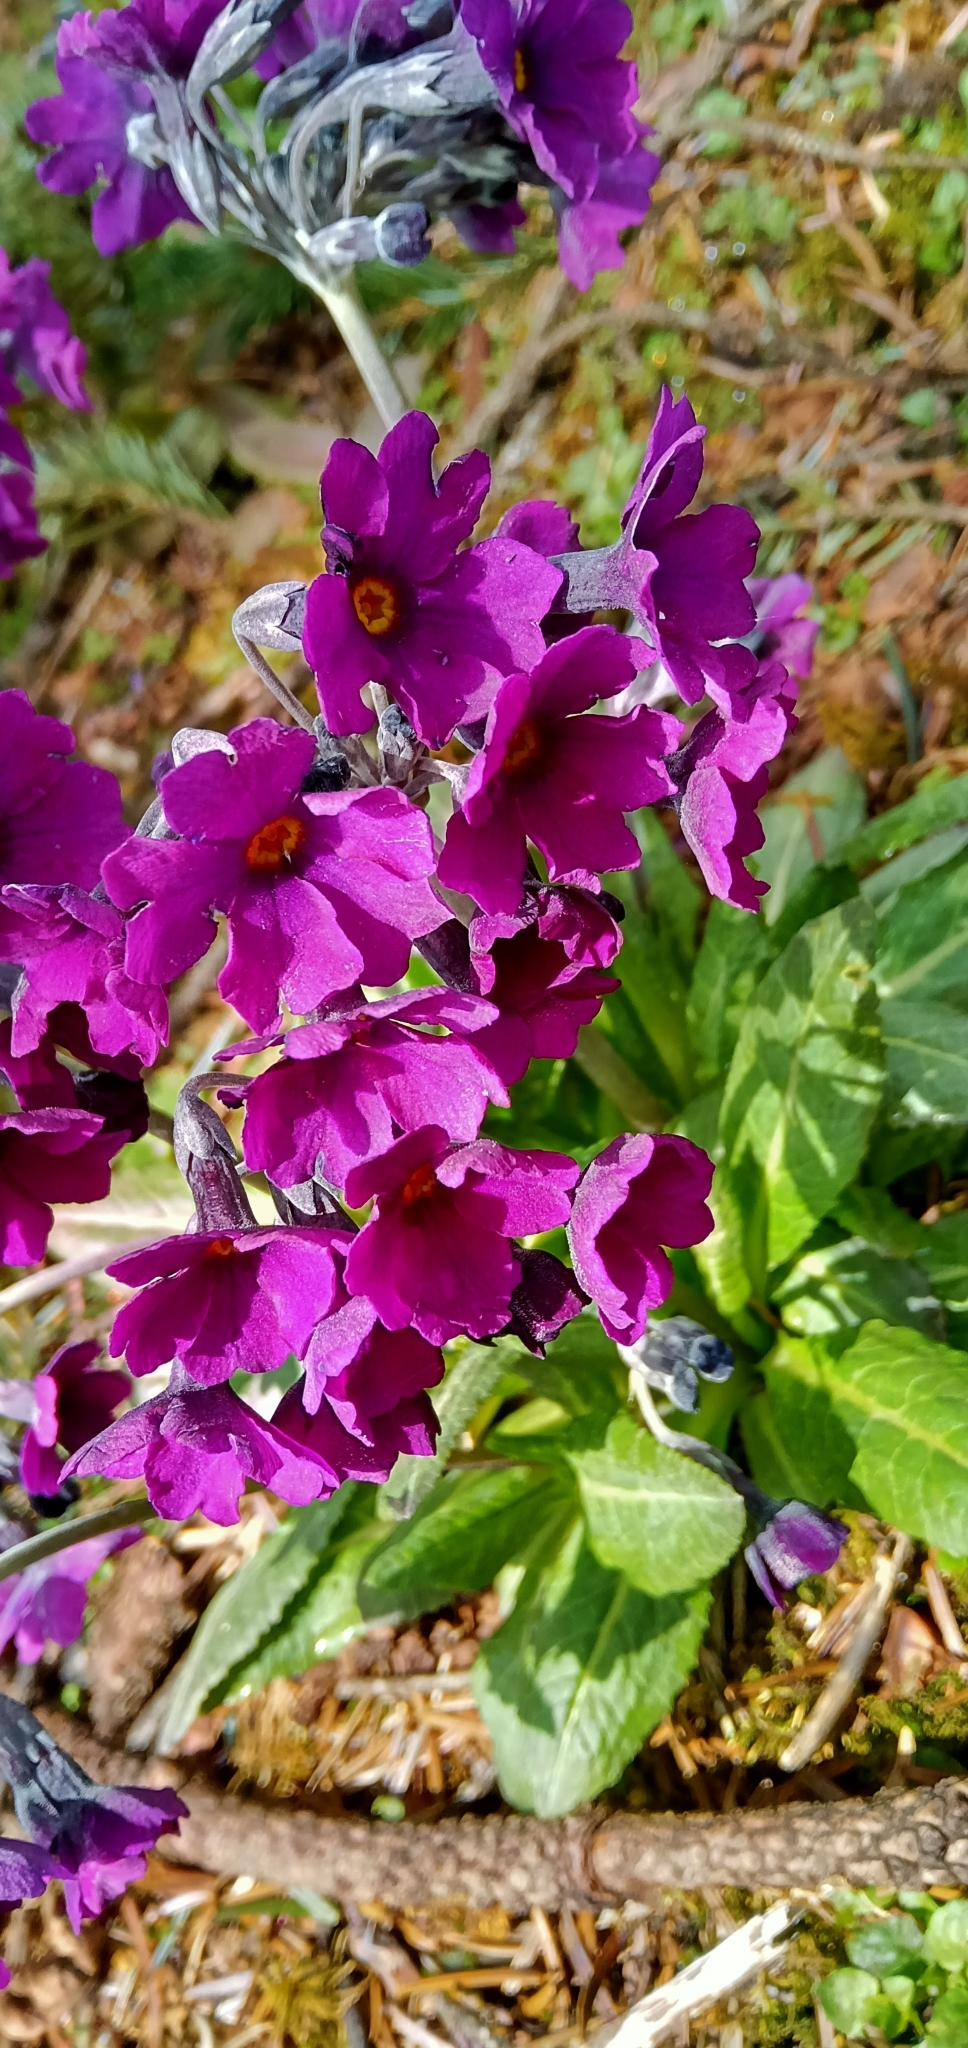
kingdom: Plantae
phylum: Tracheophyta
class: Magnoliopsida
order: Ericales
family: Primulaceae
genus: Primula
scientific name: Primula calderiana
